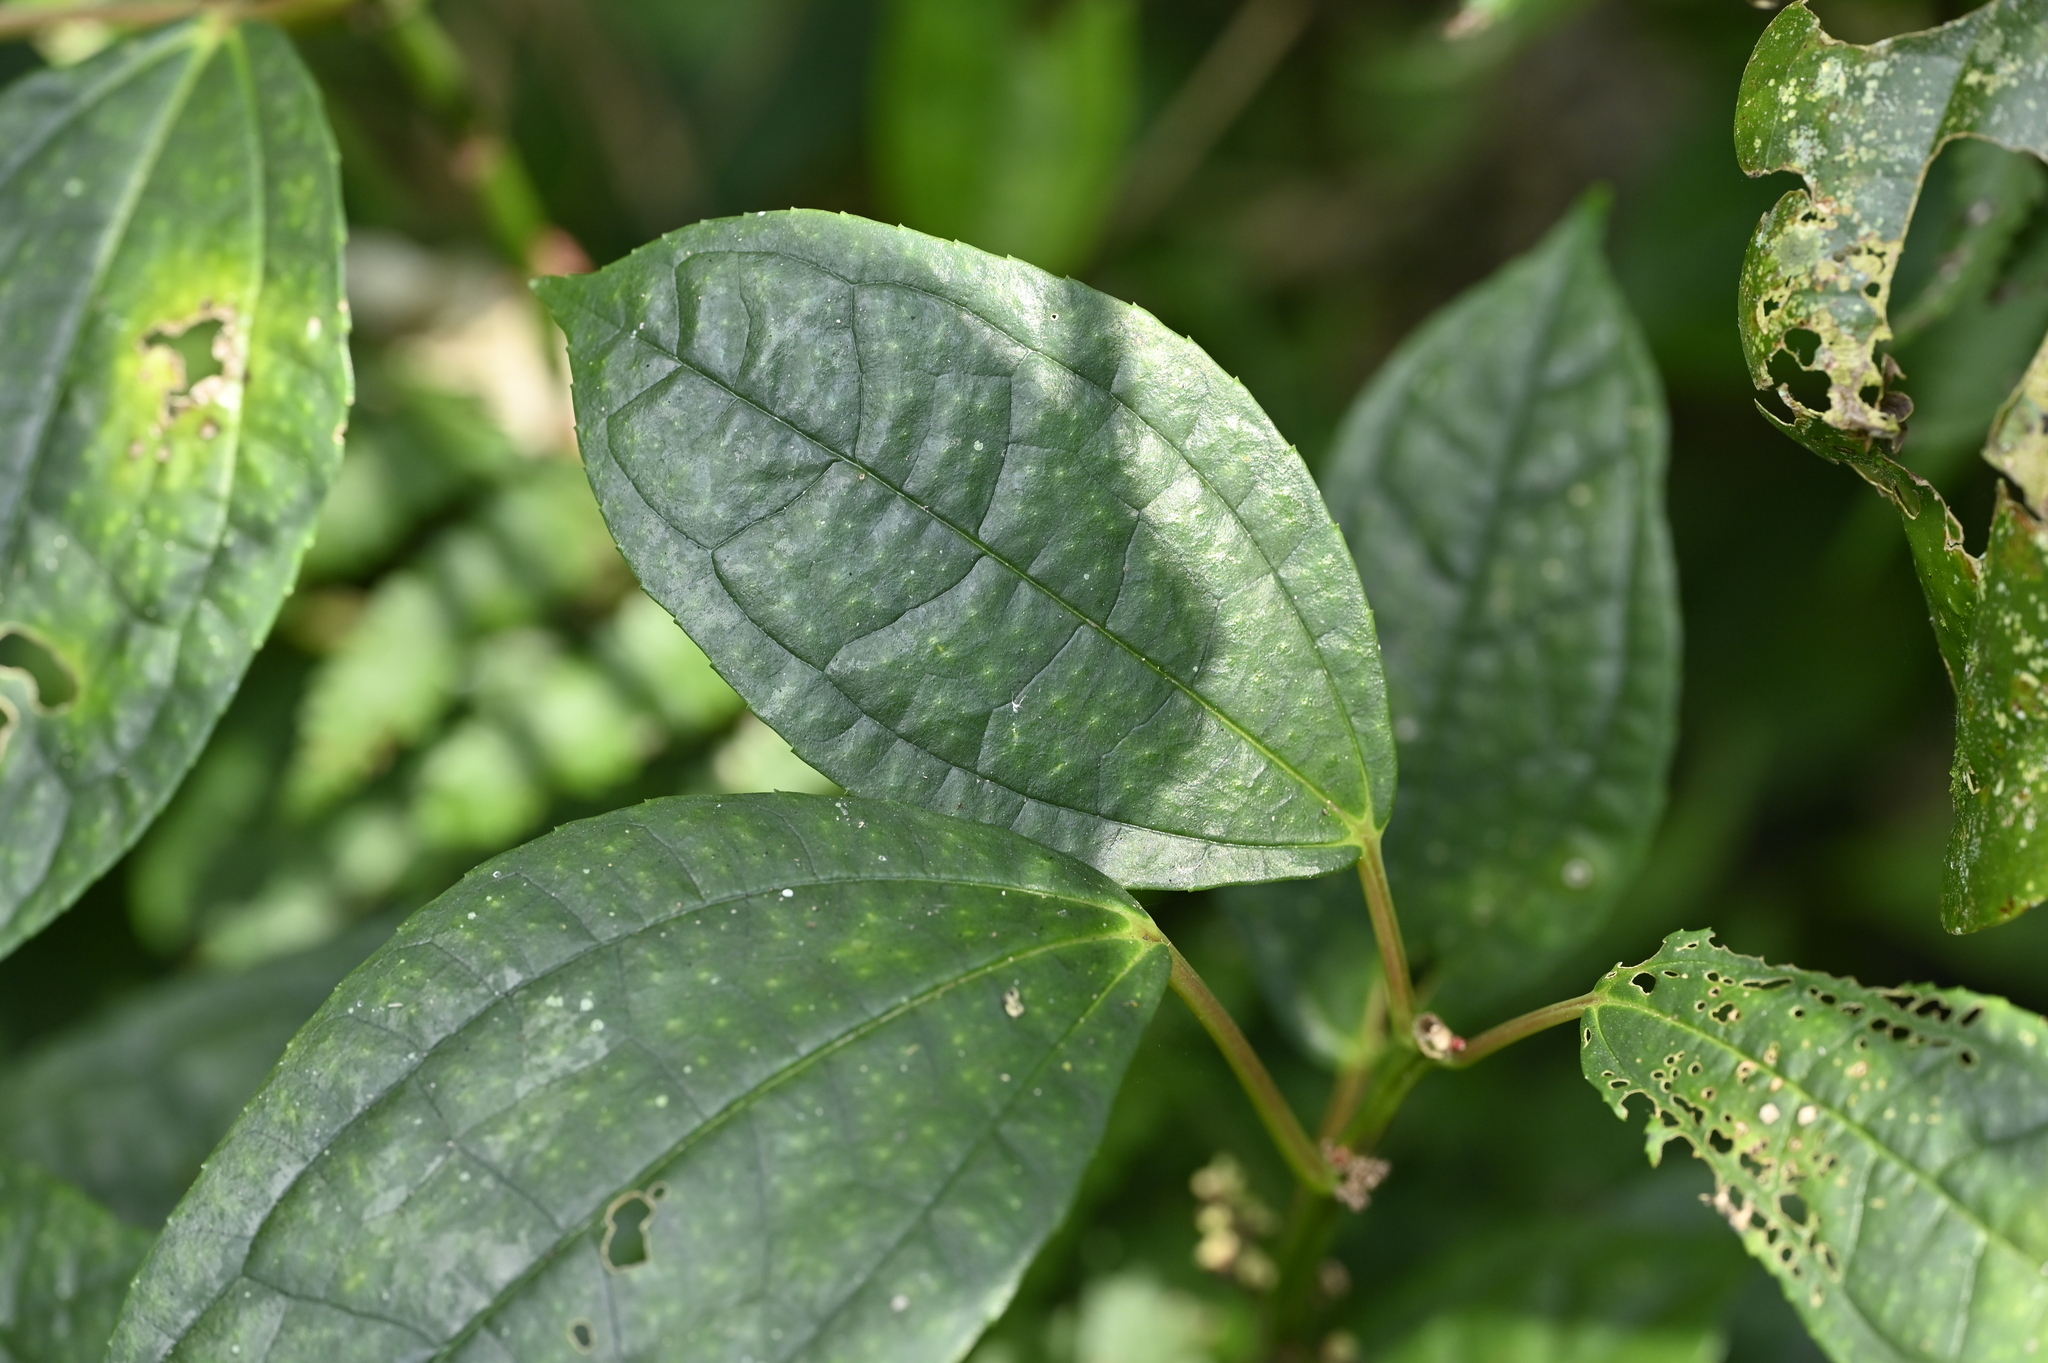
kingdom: Plantae
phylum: Tracheophyta
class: Magnoliopsida
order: Rosales
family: Urticaceae
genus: Pilea
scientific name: Pilea funkikensis
